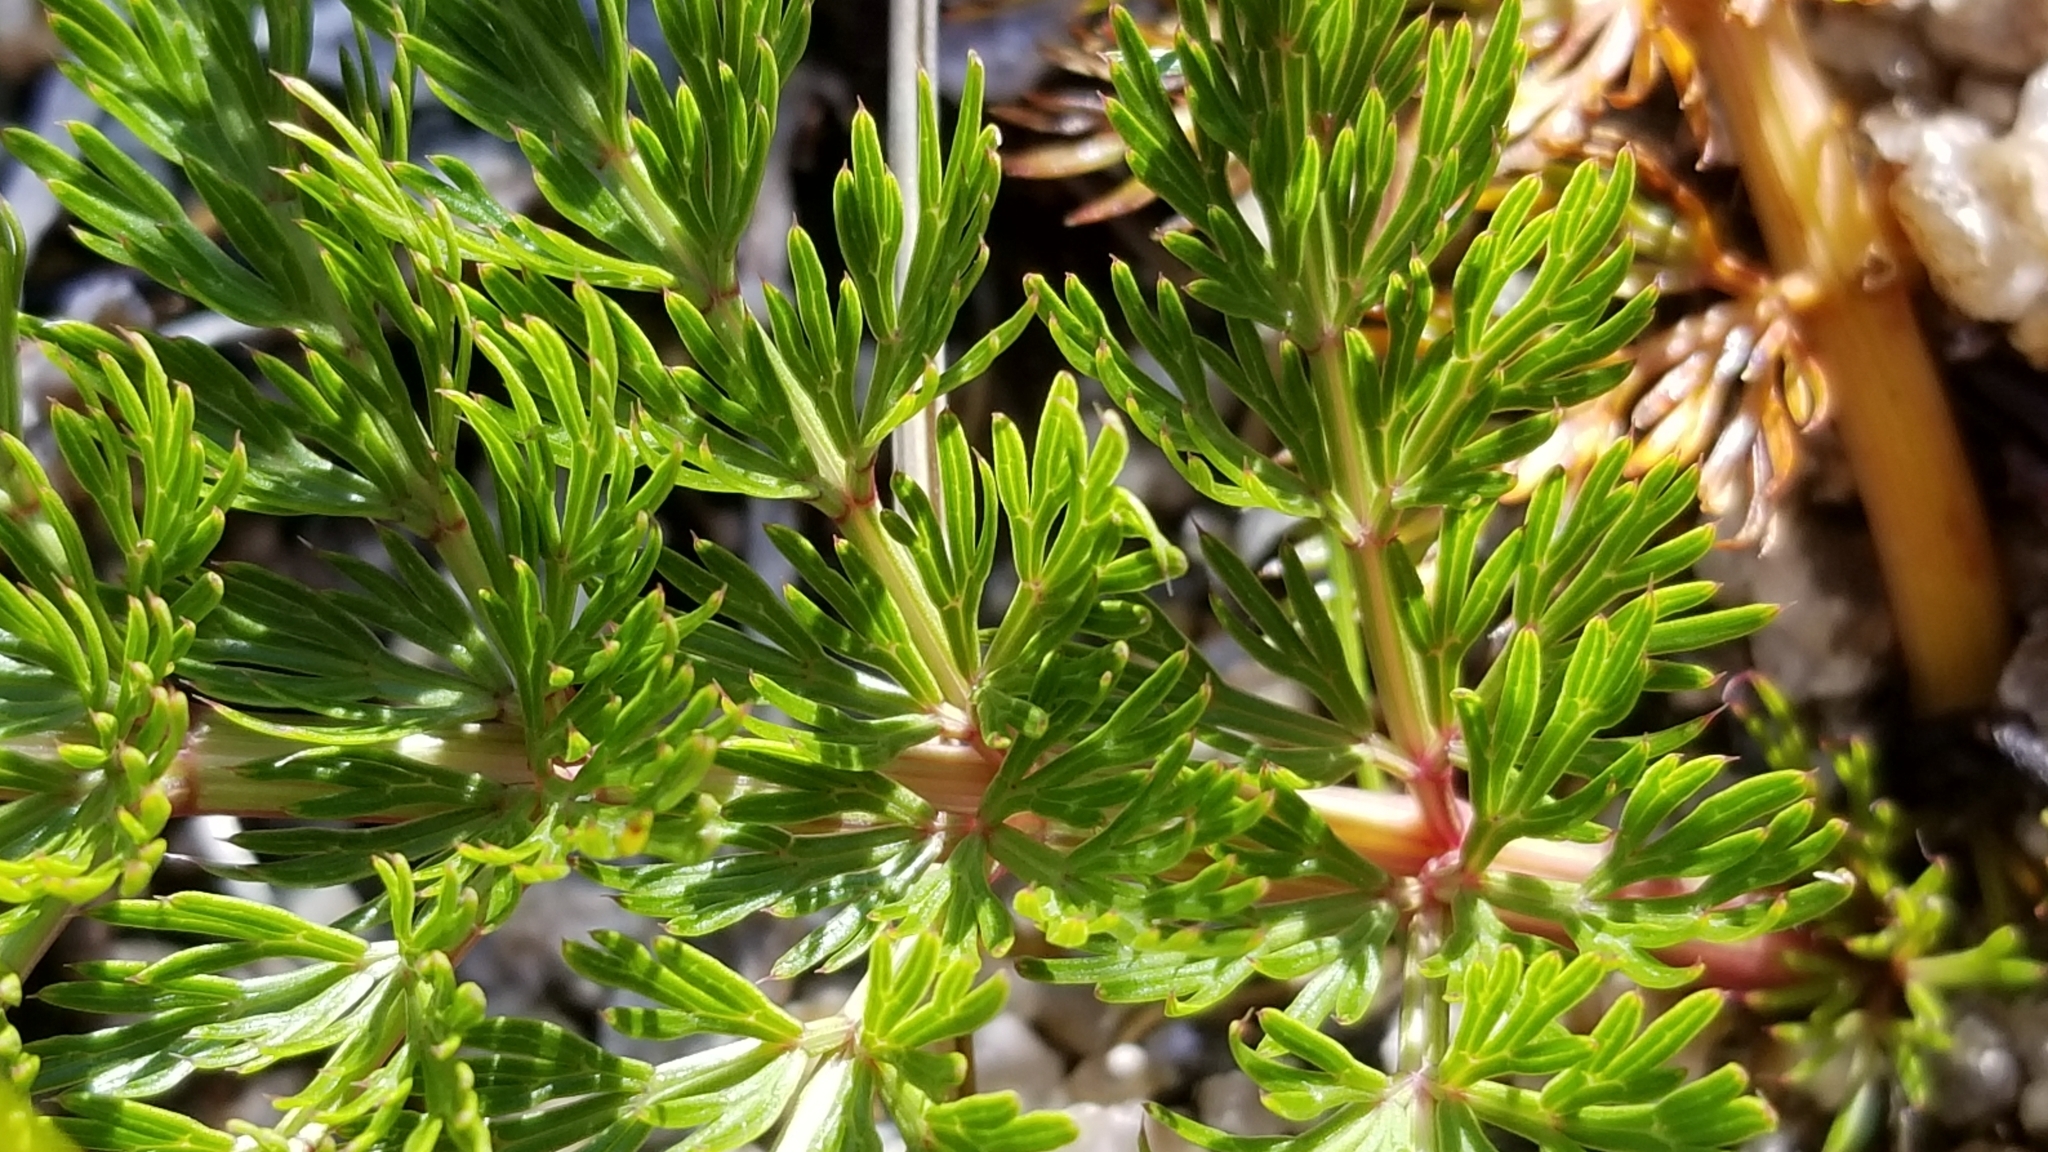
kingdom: Plantae
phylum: Tracheophyta
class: Magnoliopsida
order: Apiales
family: Apiaceae
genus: Anisotome
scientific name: Anisotome haastii
